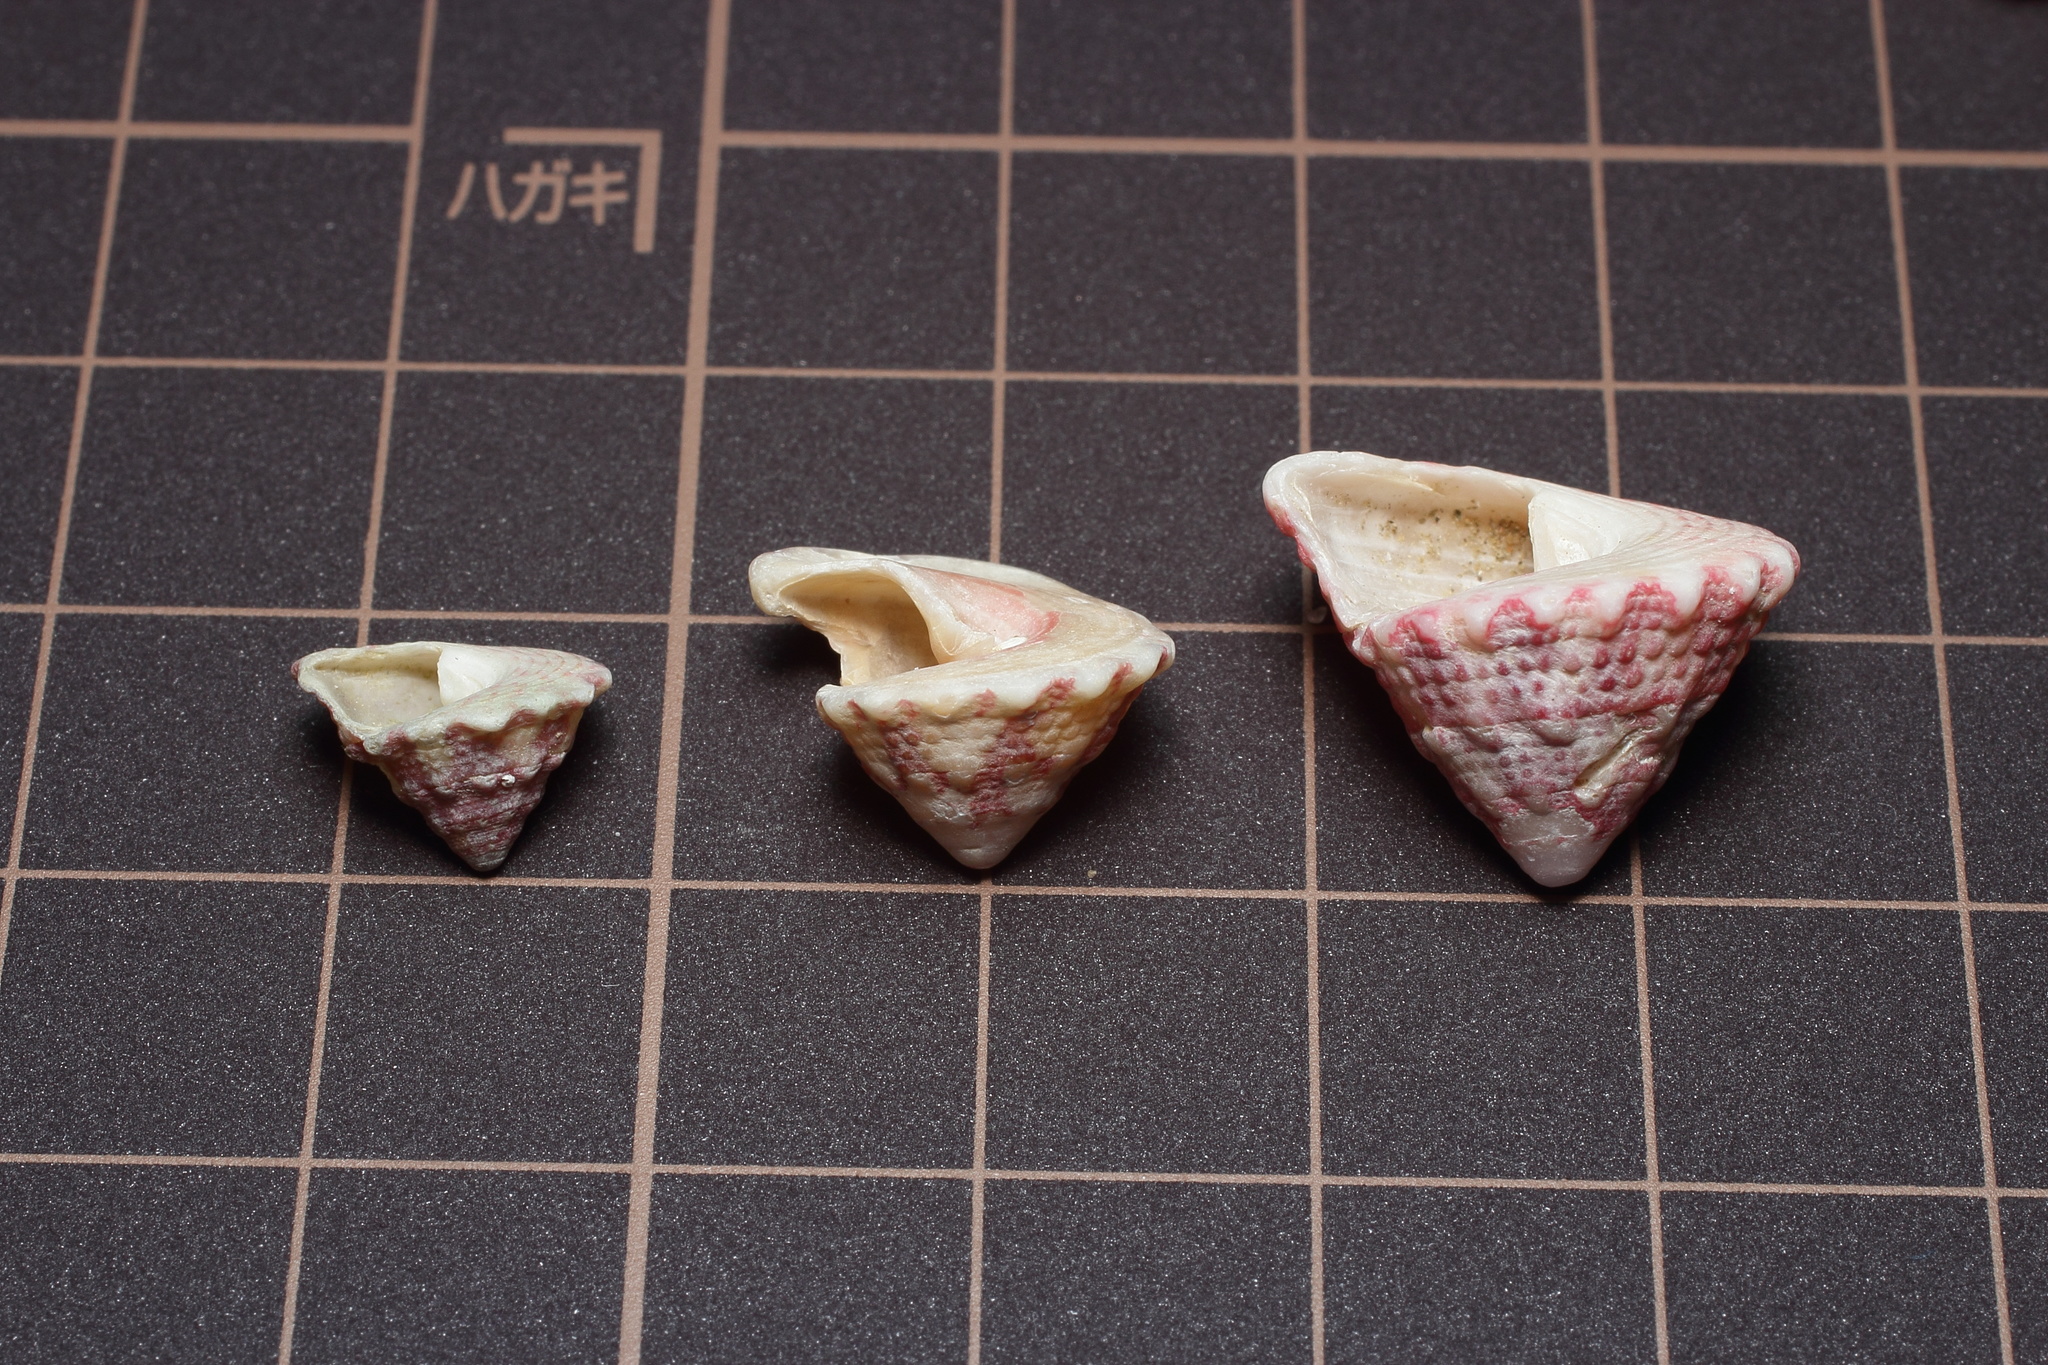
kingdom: Animalia
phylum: Mollusca
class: Gastropoda
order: Trochida
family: Trochidae
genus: Trochus
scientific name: Trochus calcaratus
